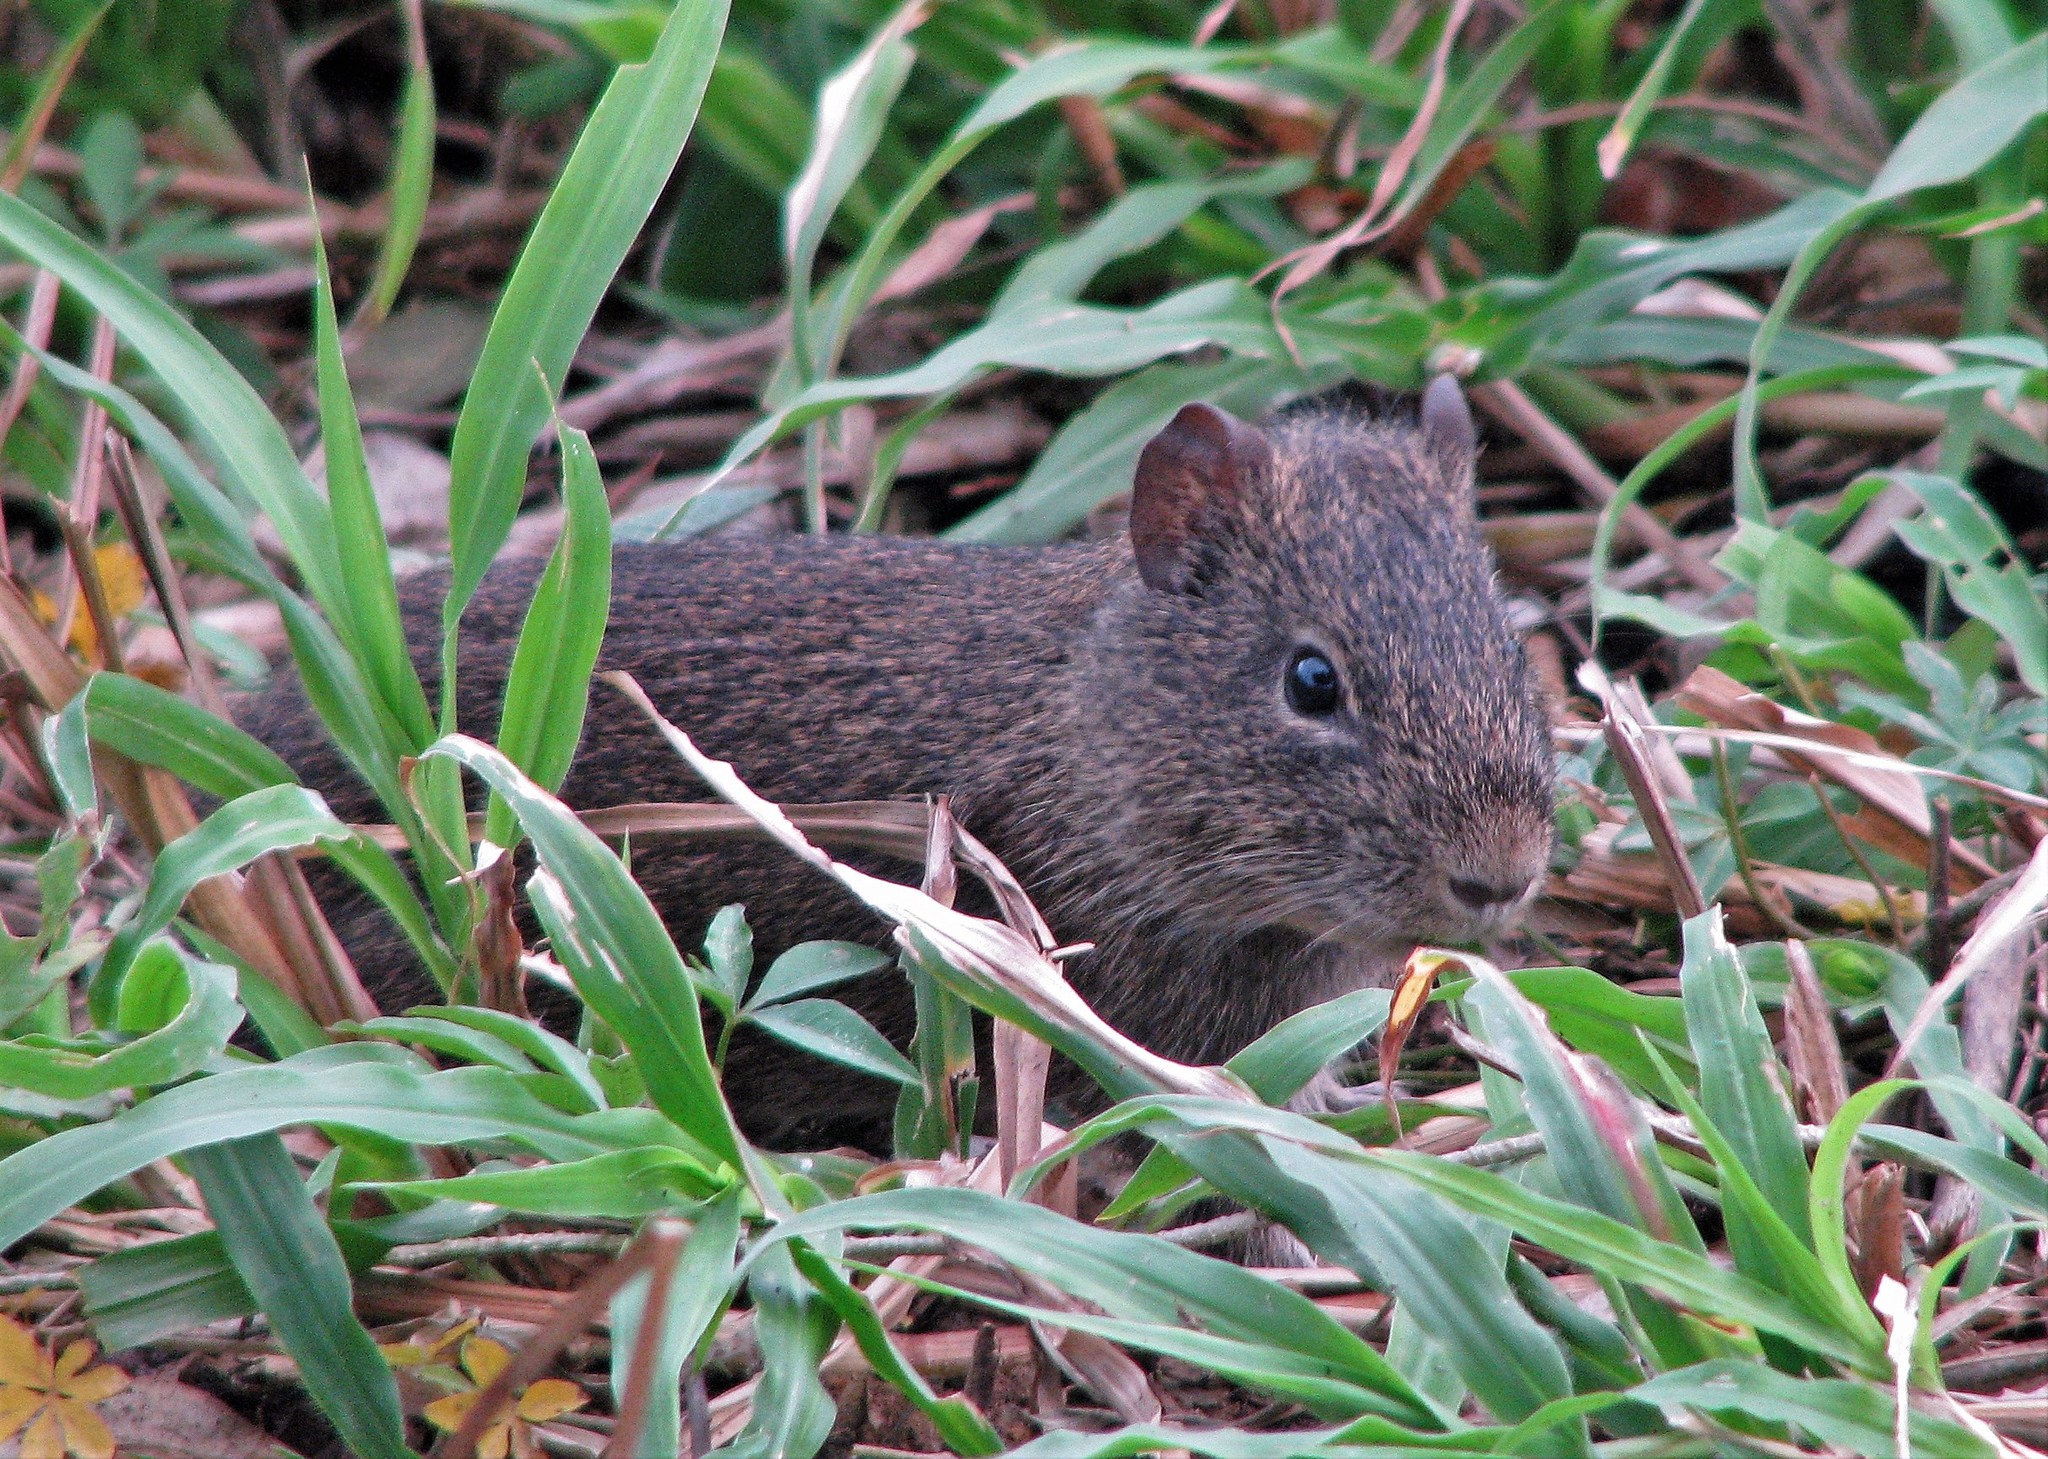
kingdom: Animalia
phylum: Chordata
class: Mammalia
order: Rodentia
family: Caviidae
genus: Cavia
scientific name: Cavia aperea
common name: Brazilian guinea pig
